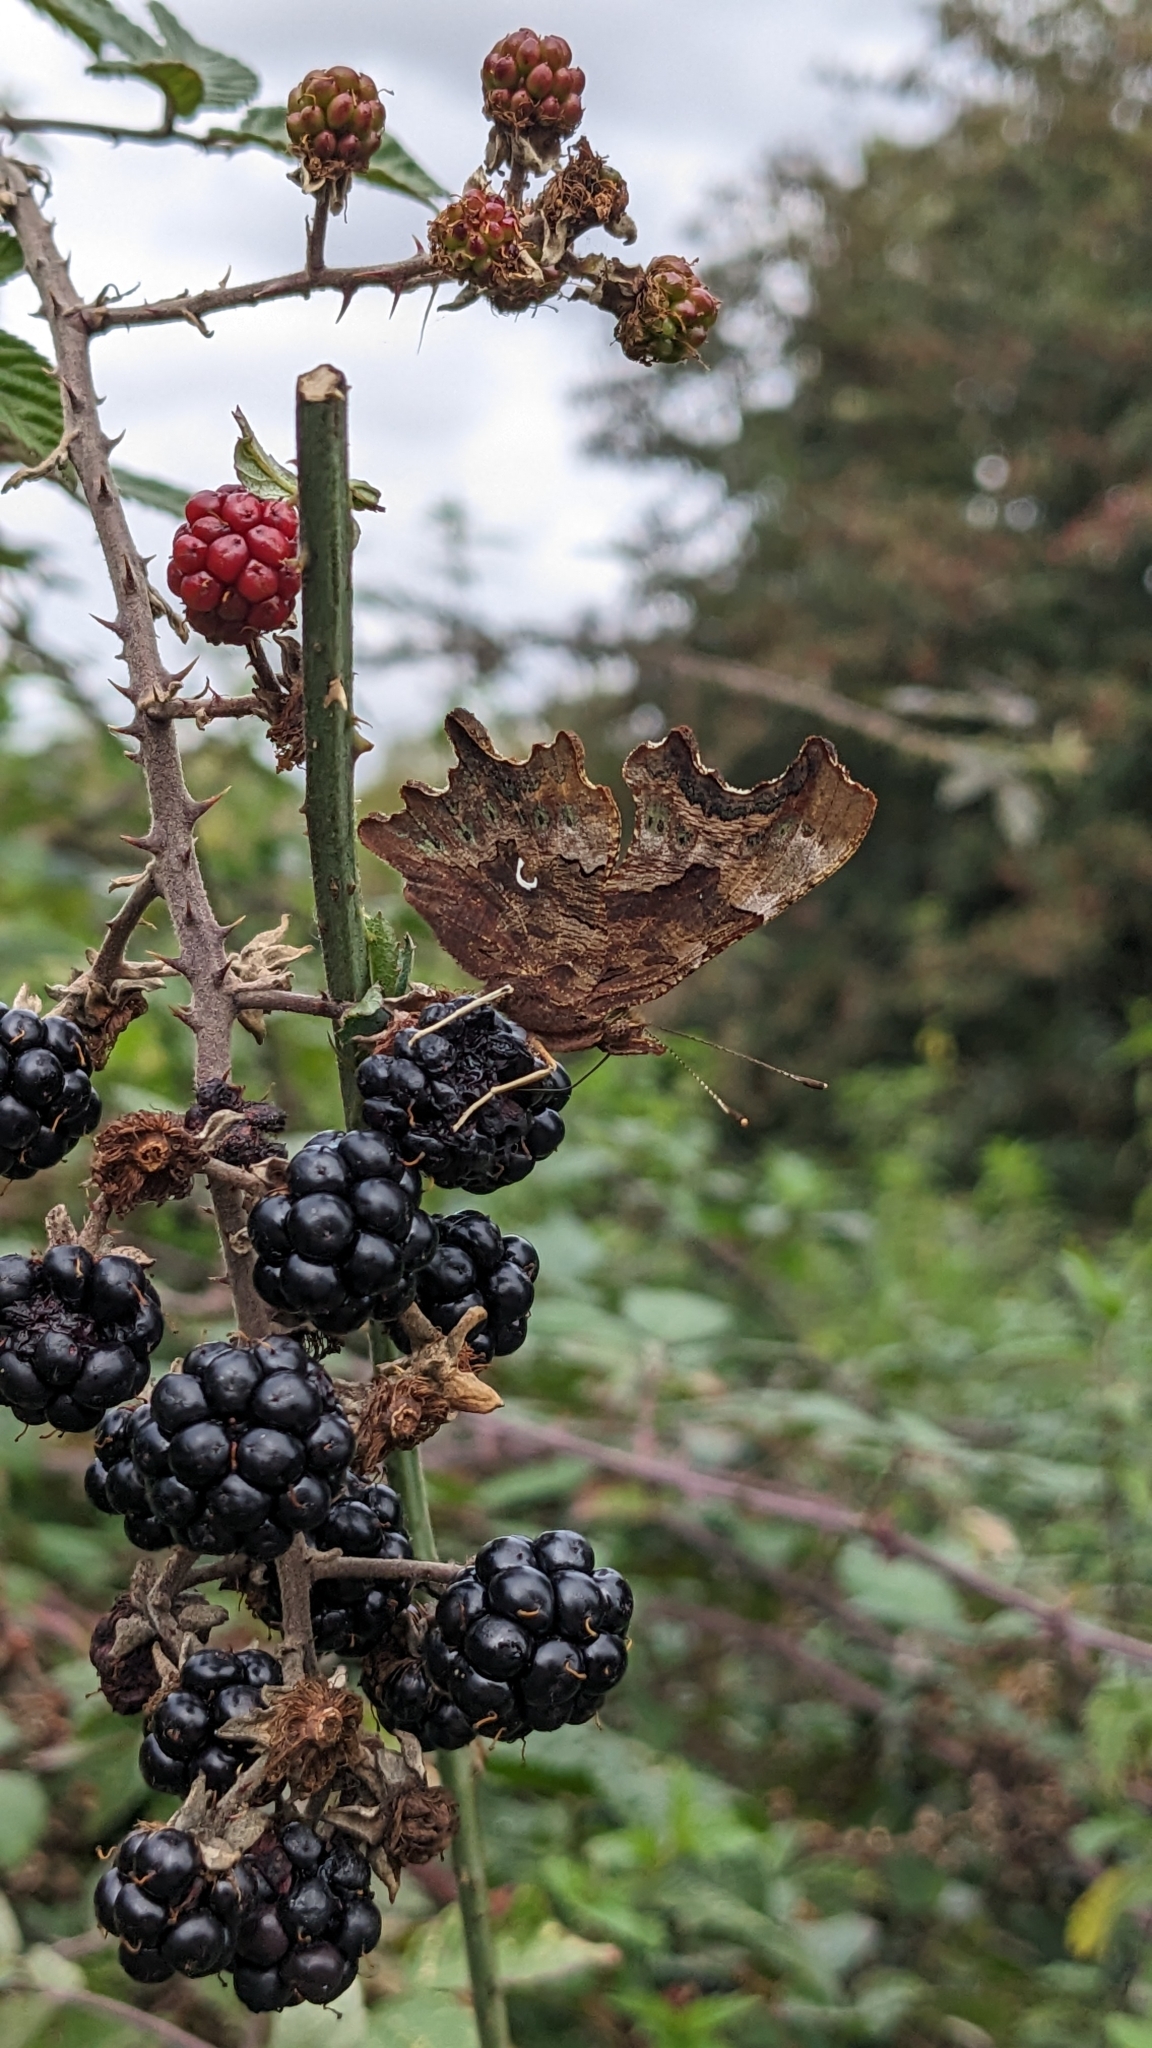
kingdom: Animalia
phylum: Arthropoda
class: Insecta
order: Lepidoptera
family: Nymphalidae
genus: Polygonia
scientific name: Polygonia c-album
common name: Comma
